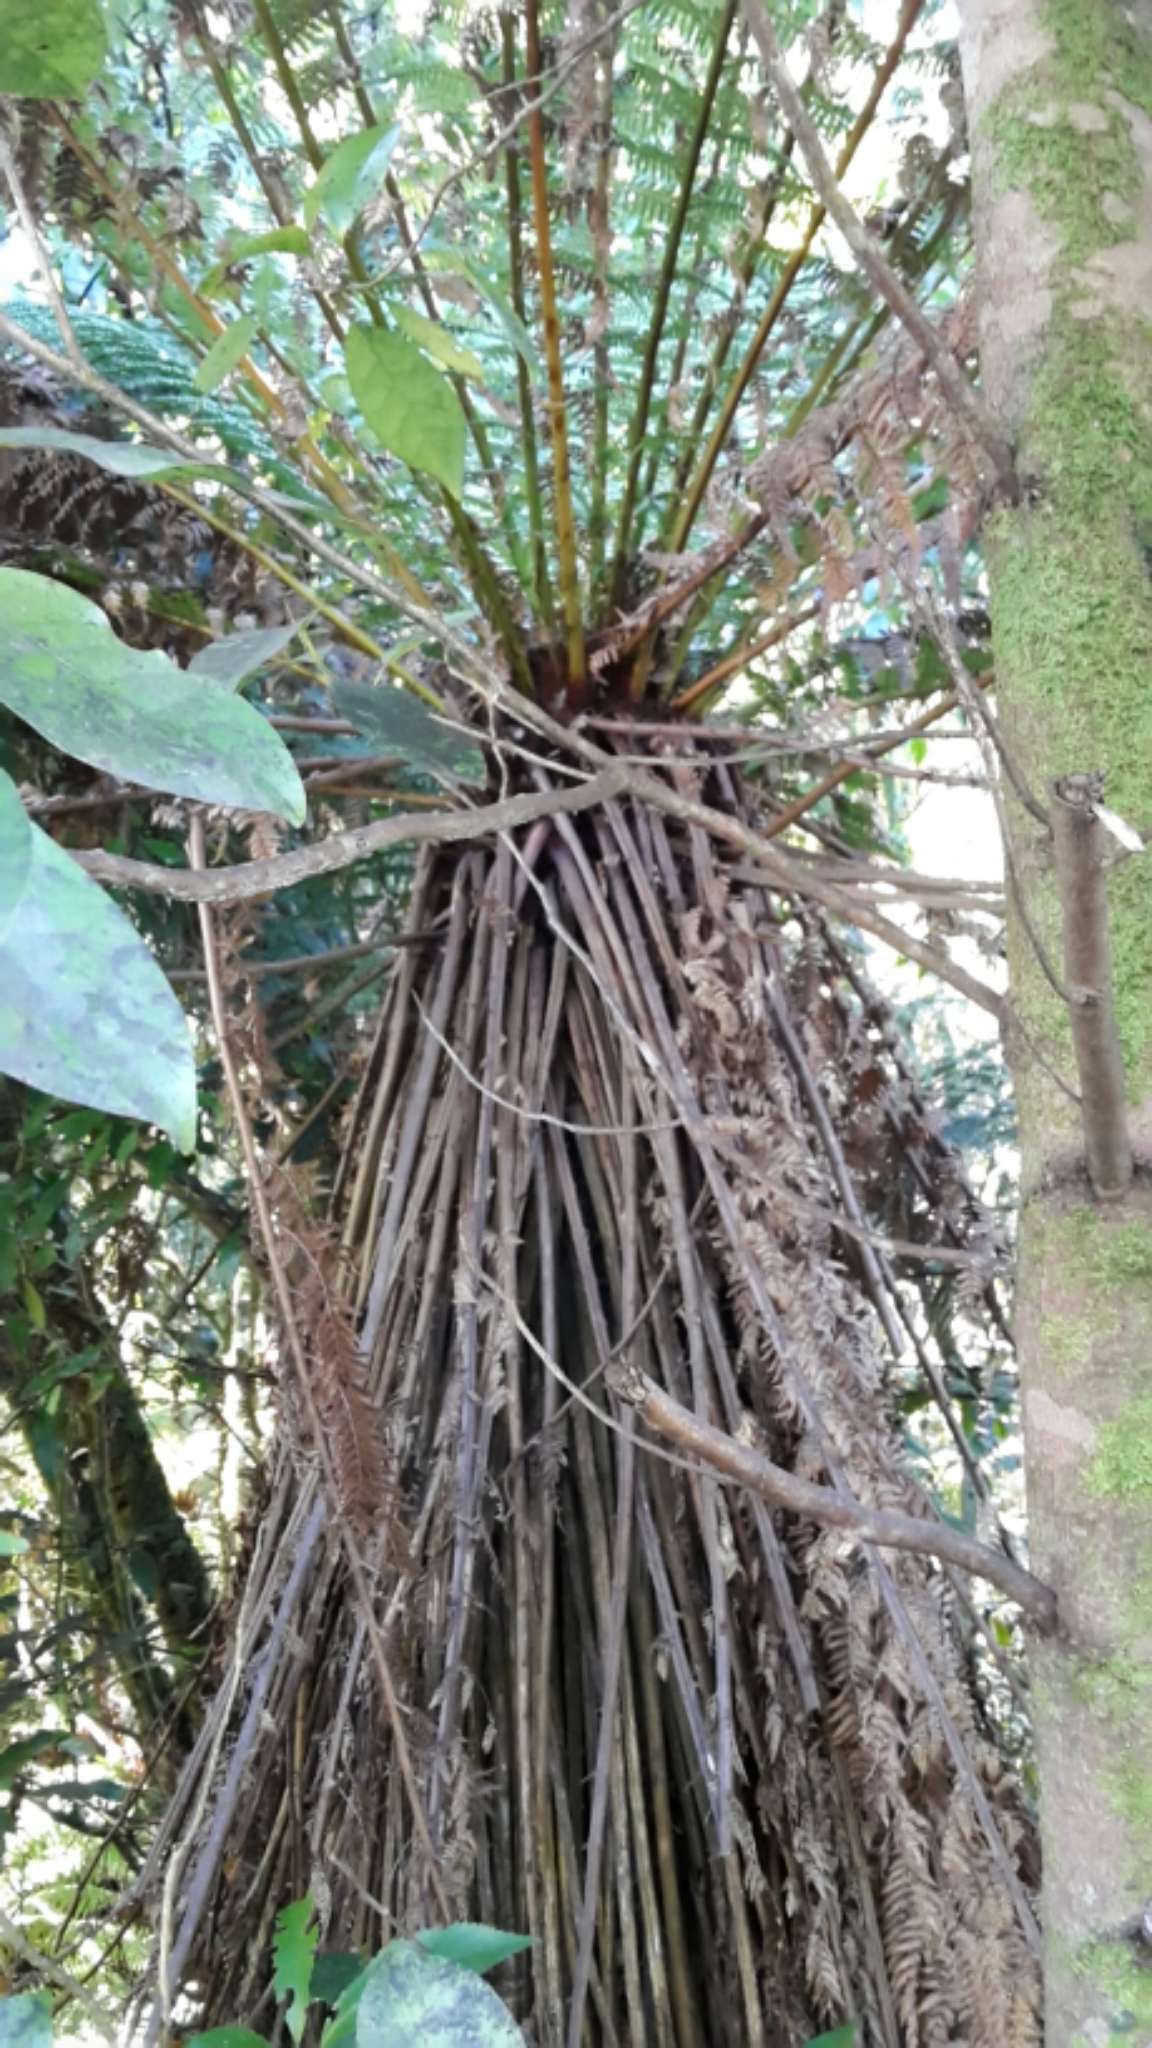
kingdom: Plantae
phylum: Tracheophyta
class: Polypodiopsida
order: Cyatheales
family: Dicksoniaceae
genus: Dicksonia
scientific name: Dicksonia fibrosa
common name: Golden tree fern
